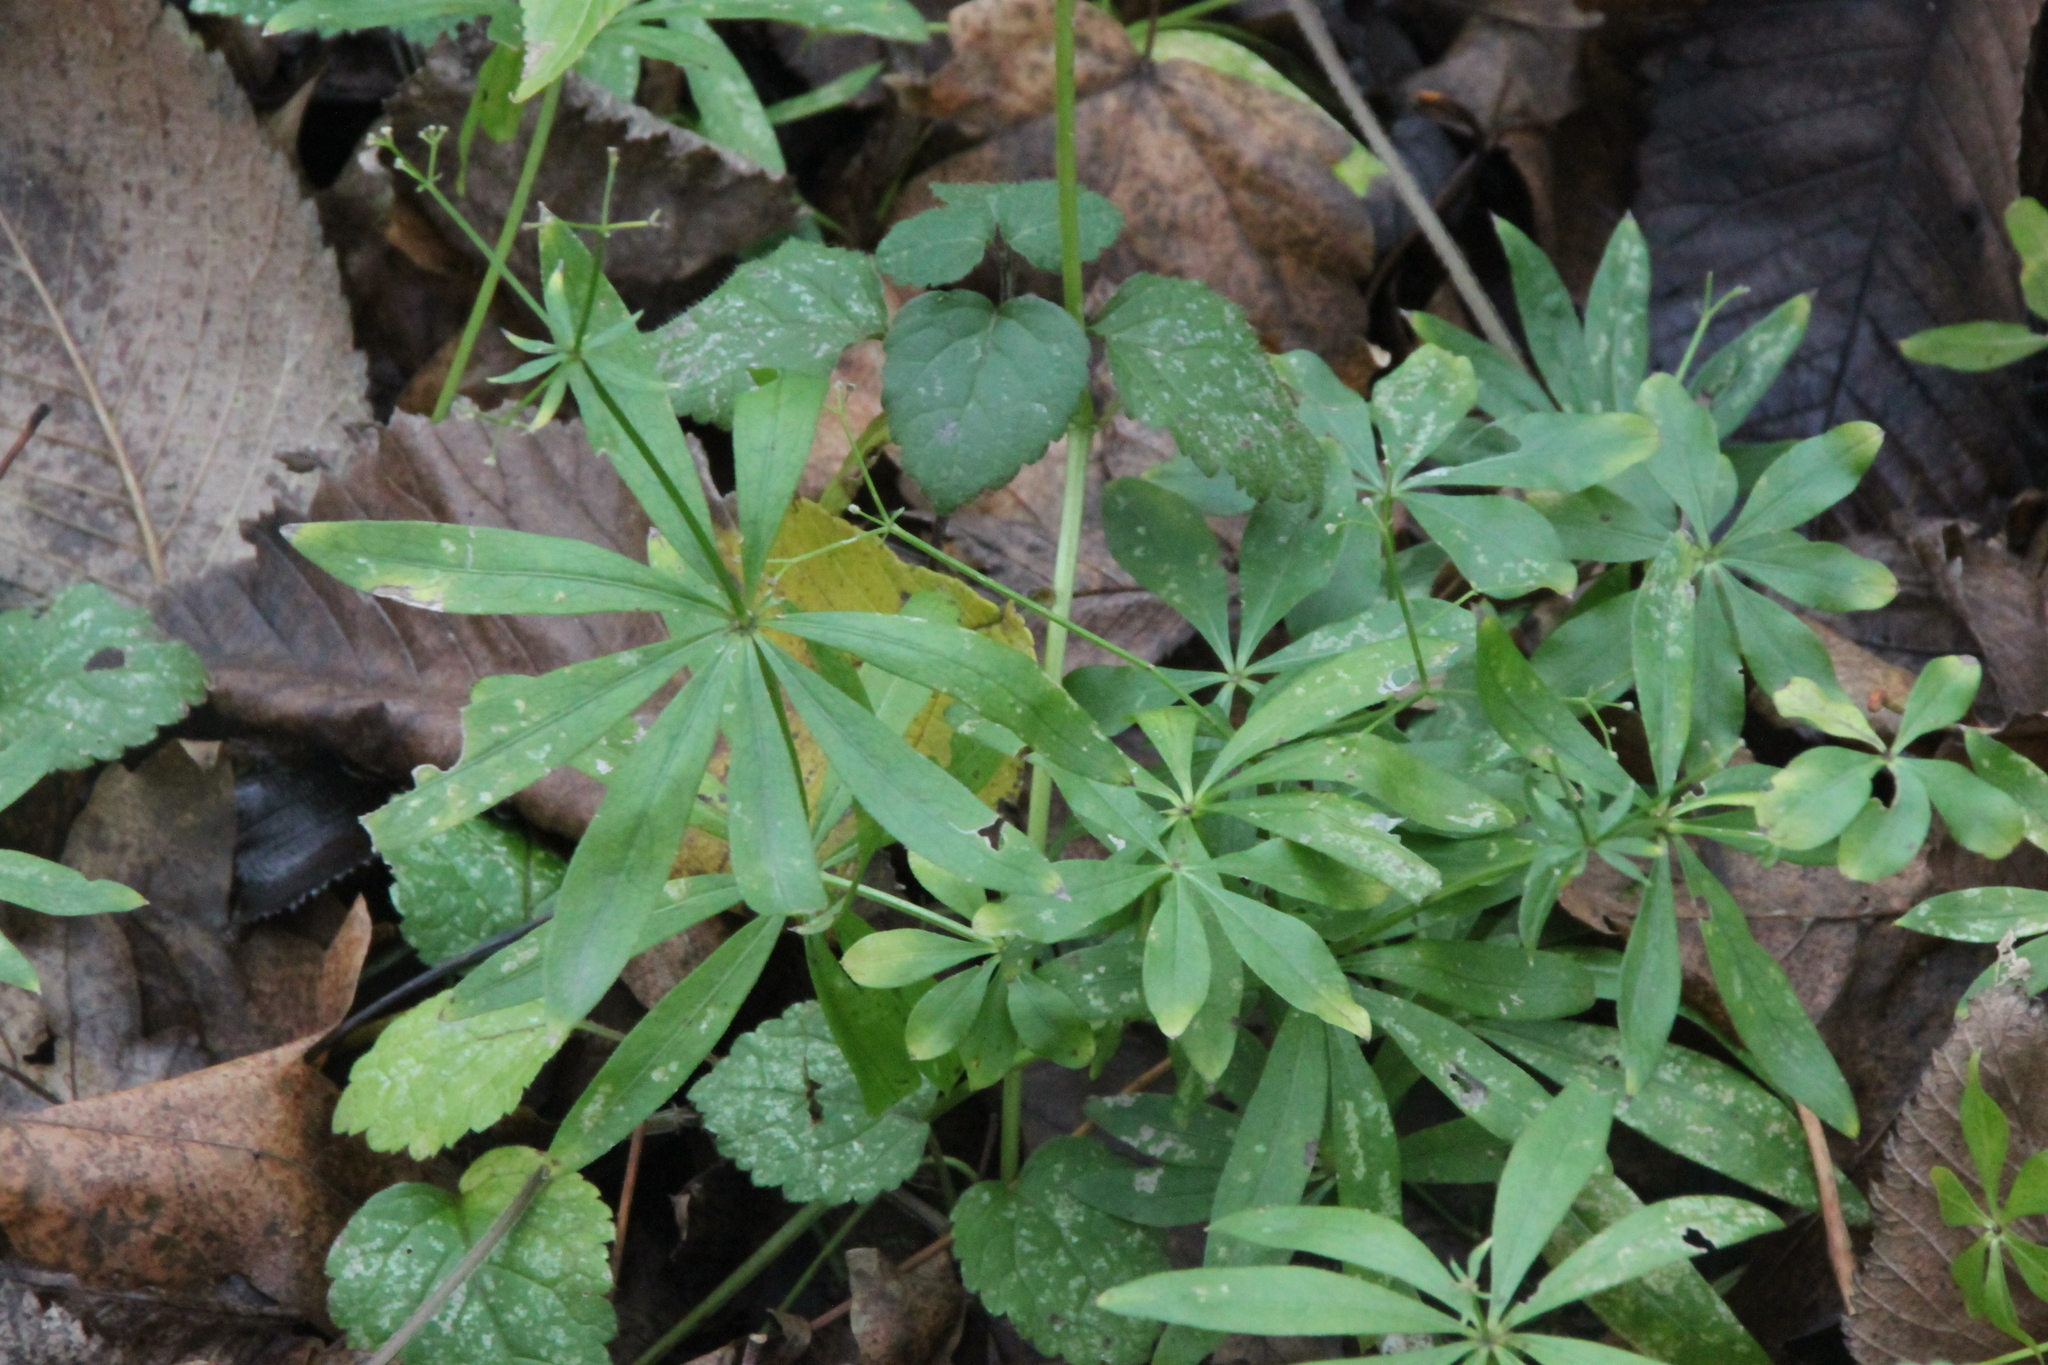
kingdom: Plantae
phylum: Tracheophyta
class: Magnoliopsida
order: Gentianales
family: Rubiaceae
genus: Galium
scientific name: Galium odoratum
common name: Sweet woodruff
